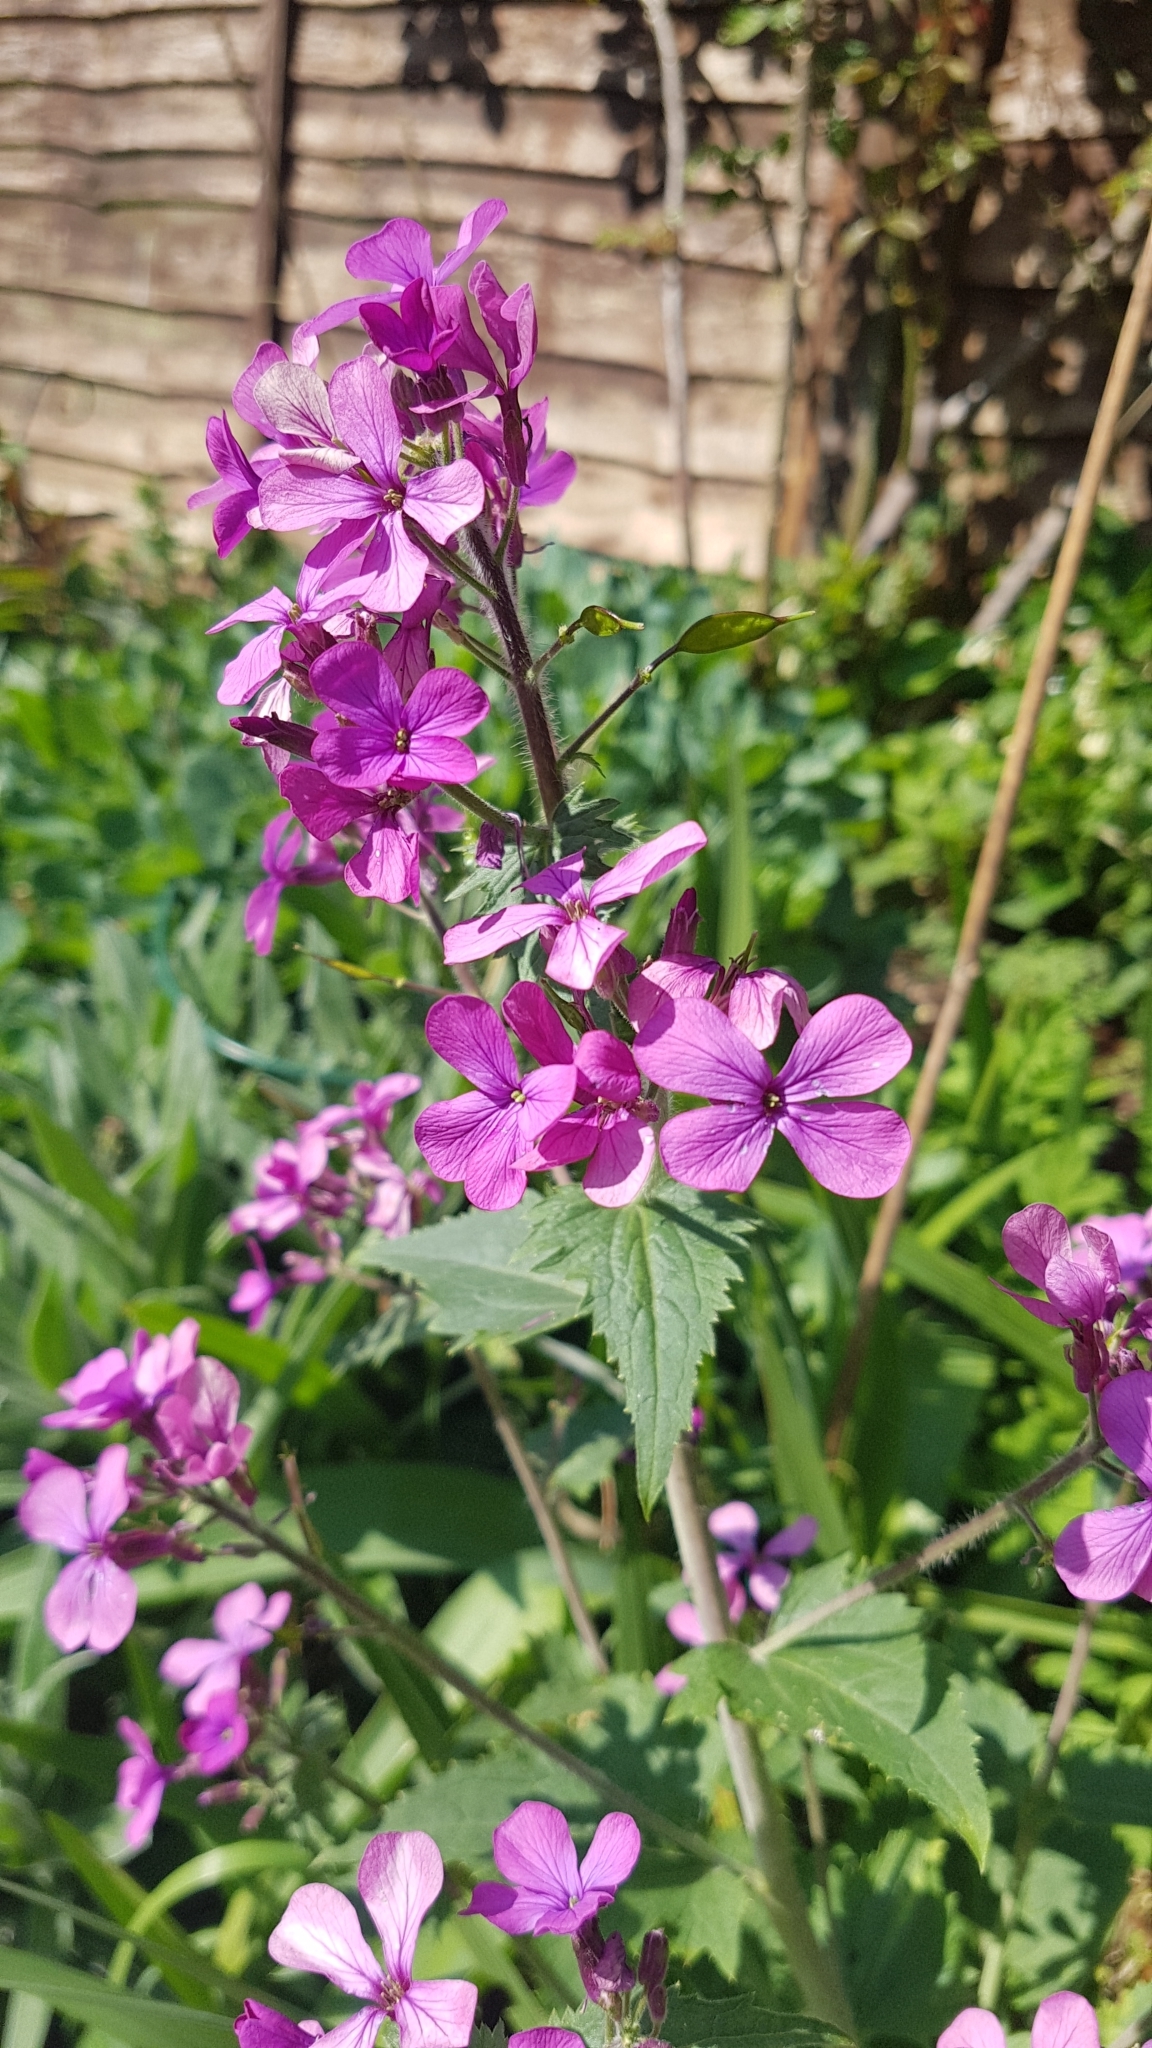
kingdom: Plantae
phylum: Tracheophyta
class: Magnoliopsida
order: Brassicales
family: Brassicaceae
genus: Lunaria
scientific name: Lunaria annua
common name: Honesty
